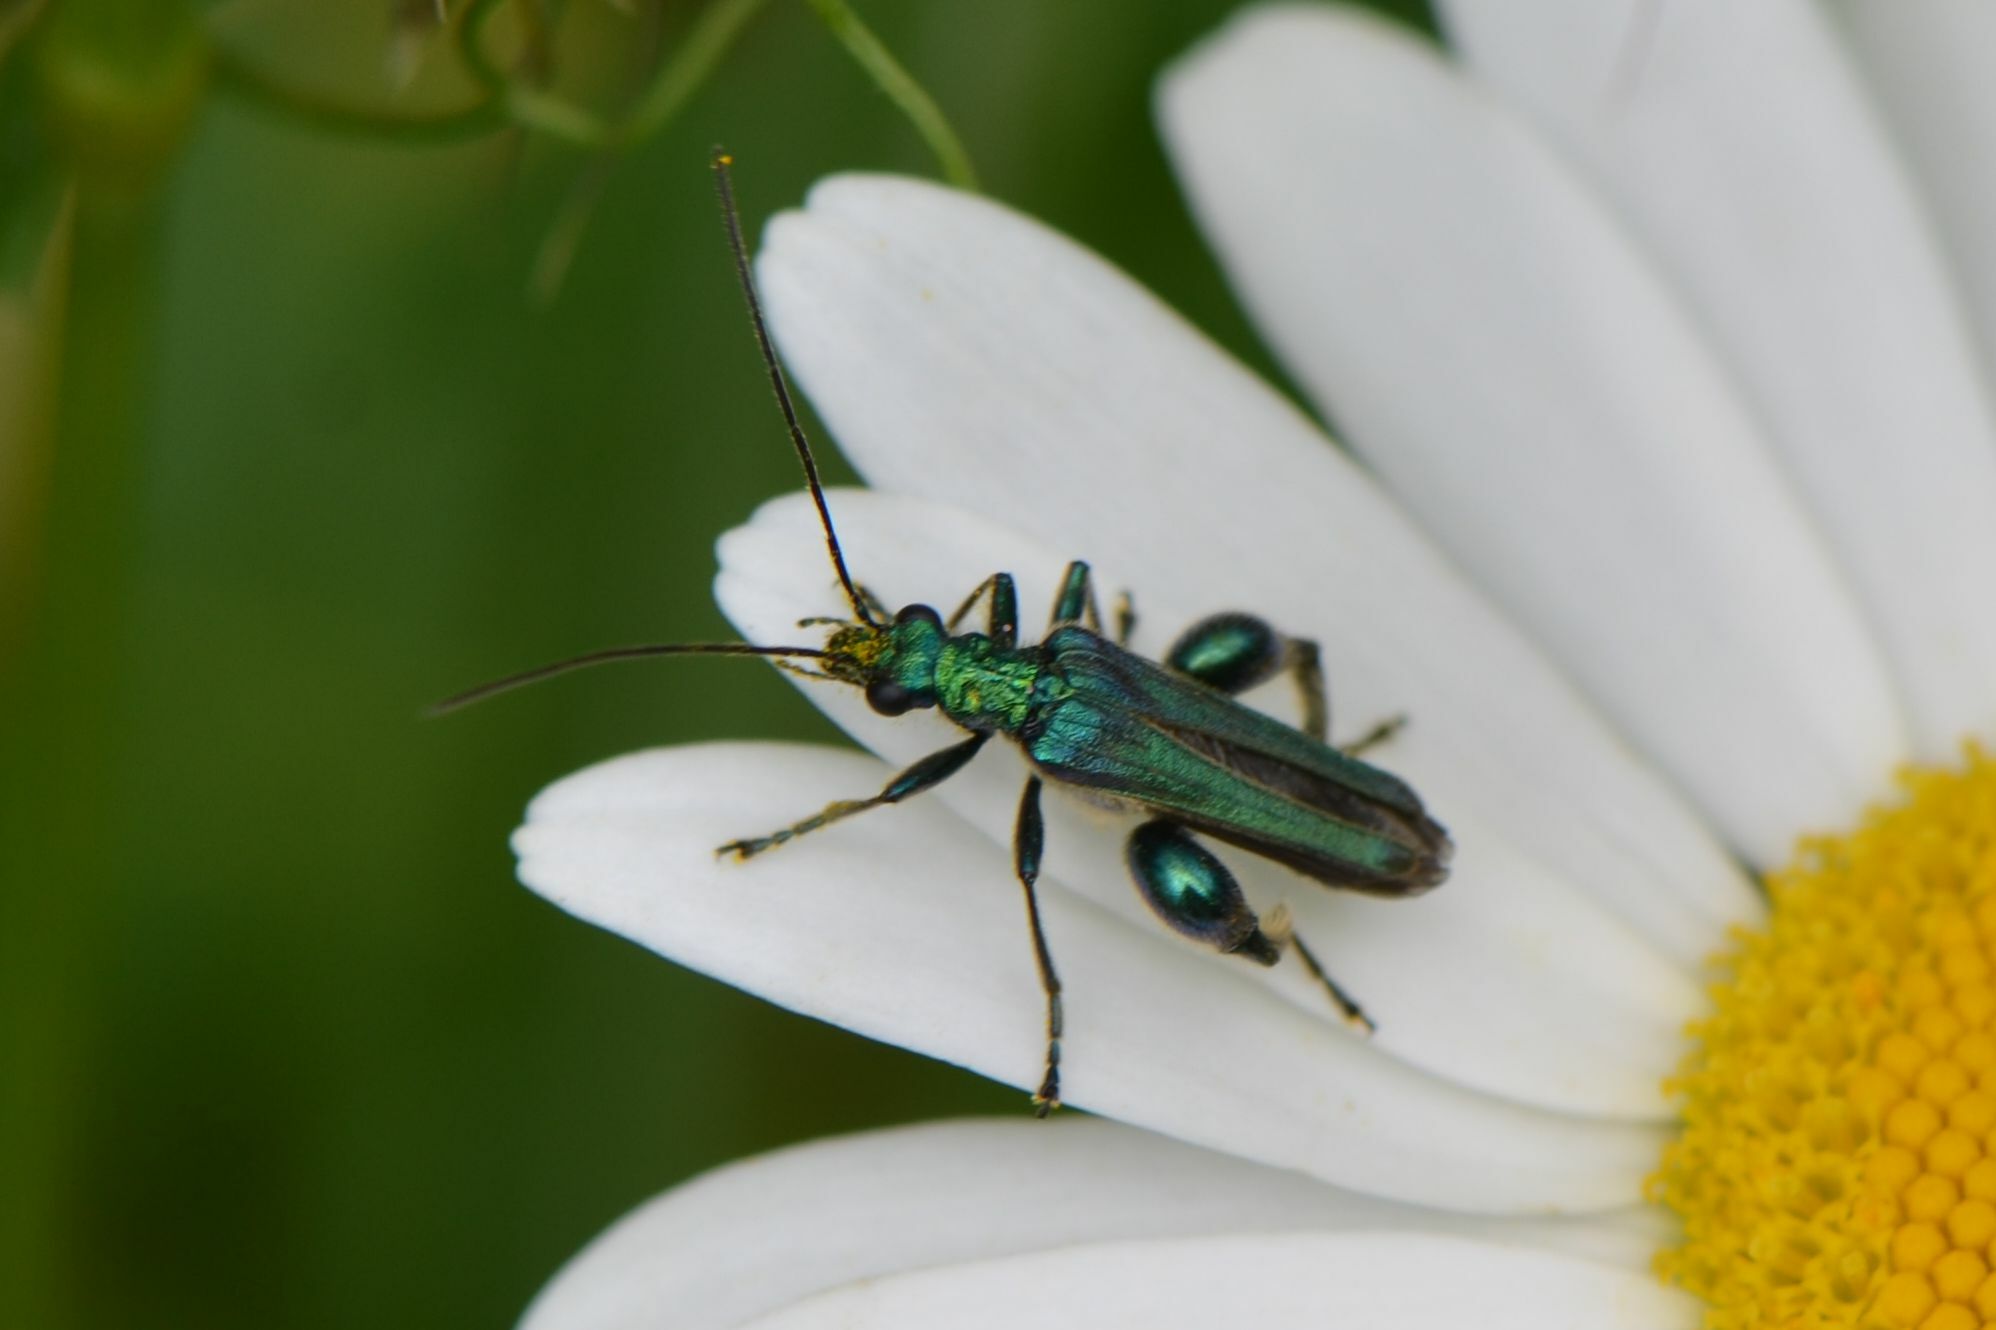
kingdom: Animalia
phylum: Arthropoda
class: Insecta
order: Coleoptera
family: Oedemeridae
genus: Oedemera
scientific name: Oedemera nobilis
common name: Swollen-thighed beetle
